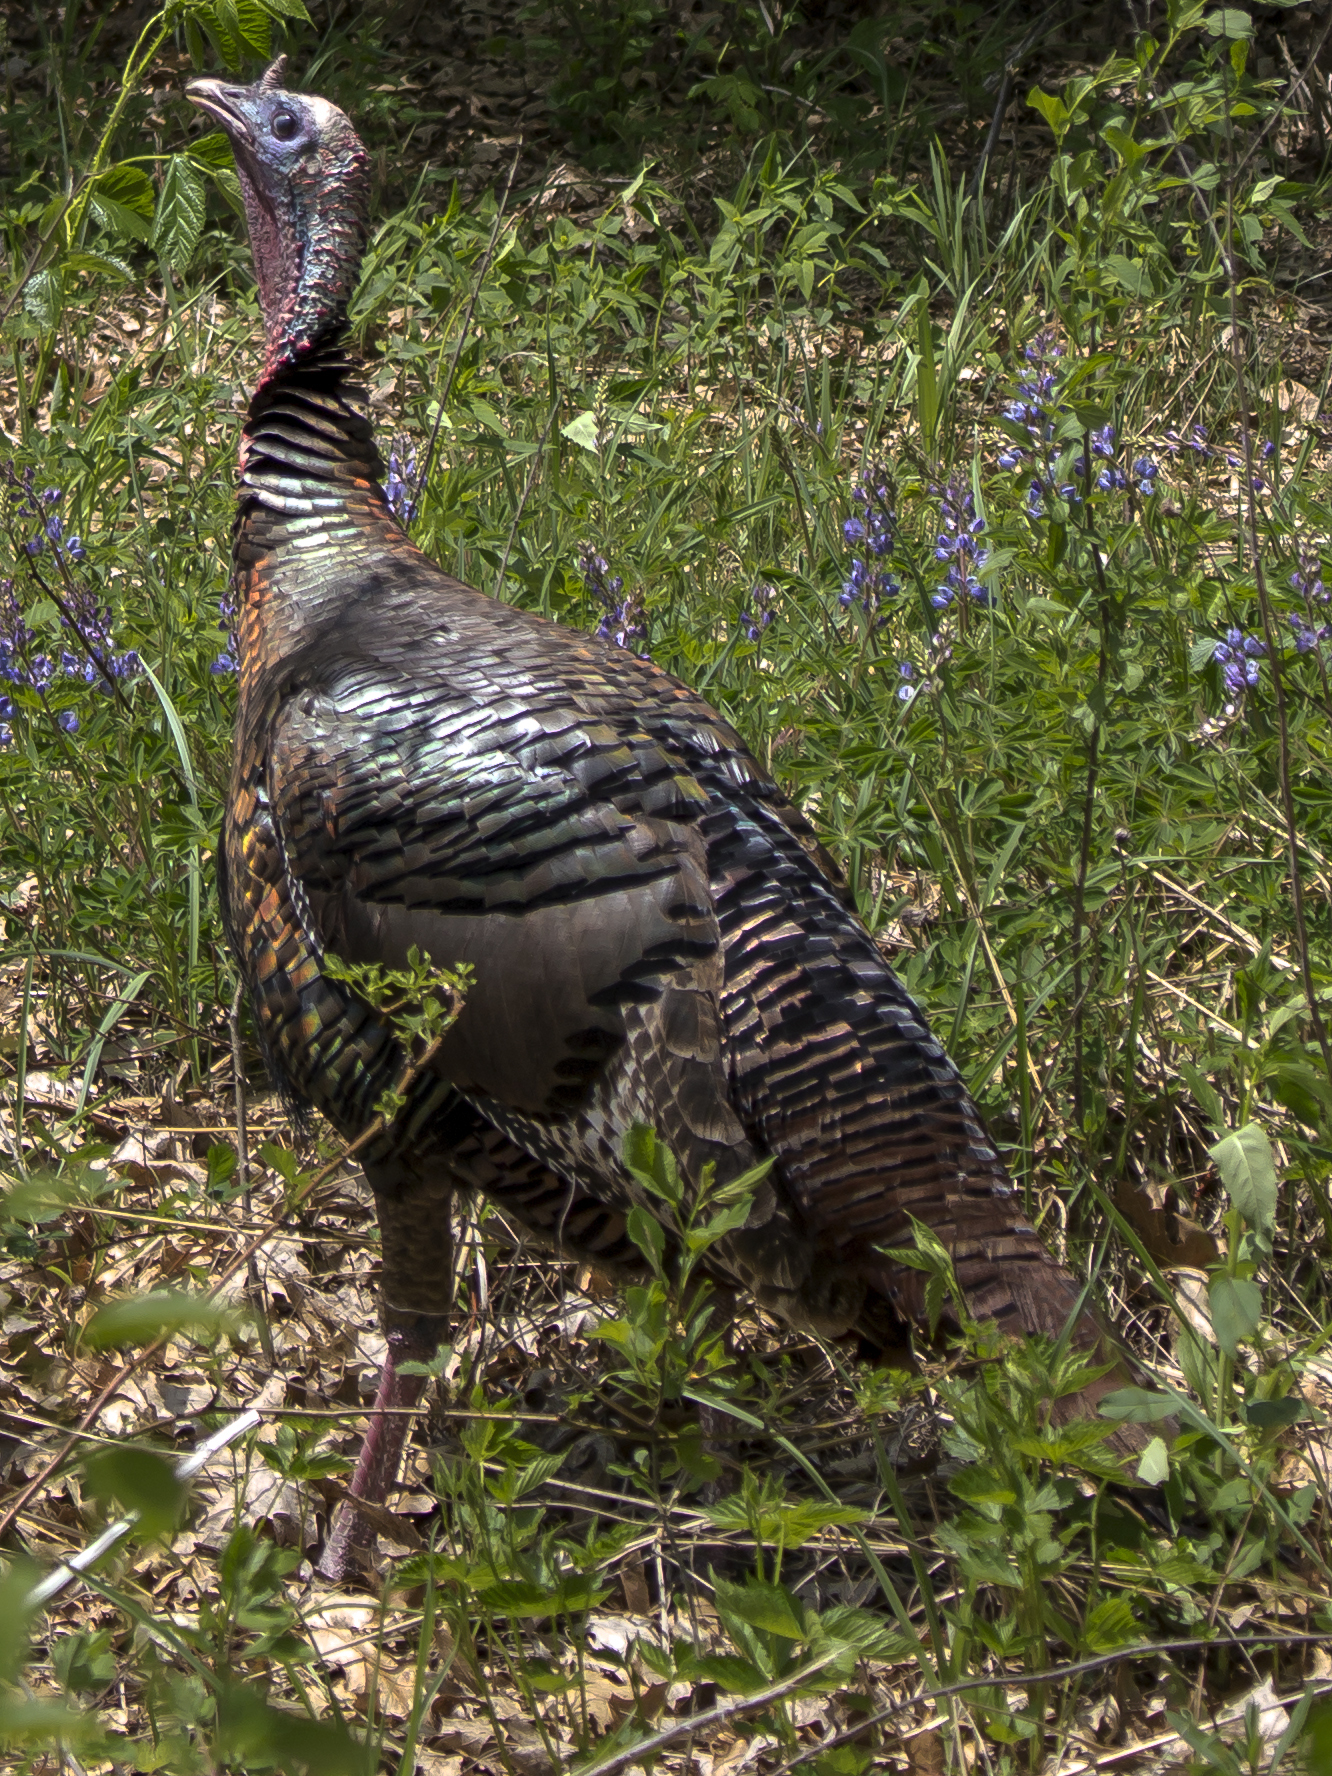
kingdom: Animalia
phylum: Chordata
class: Aves
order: Galliformes
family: Phasianidae
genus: Meleagris
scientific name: Meleagris gallopavo
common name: Wild turkey
